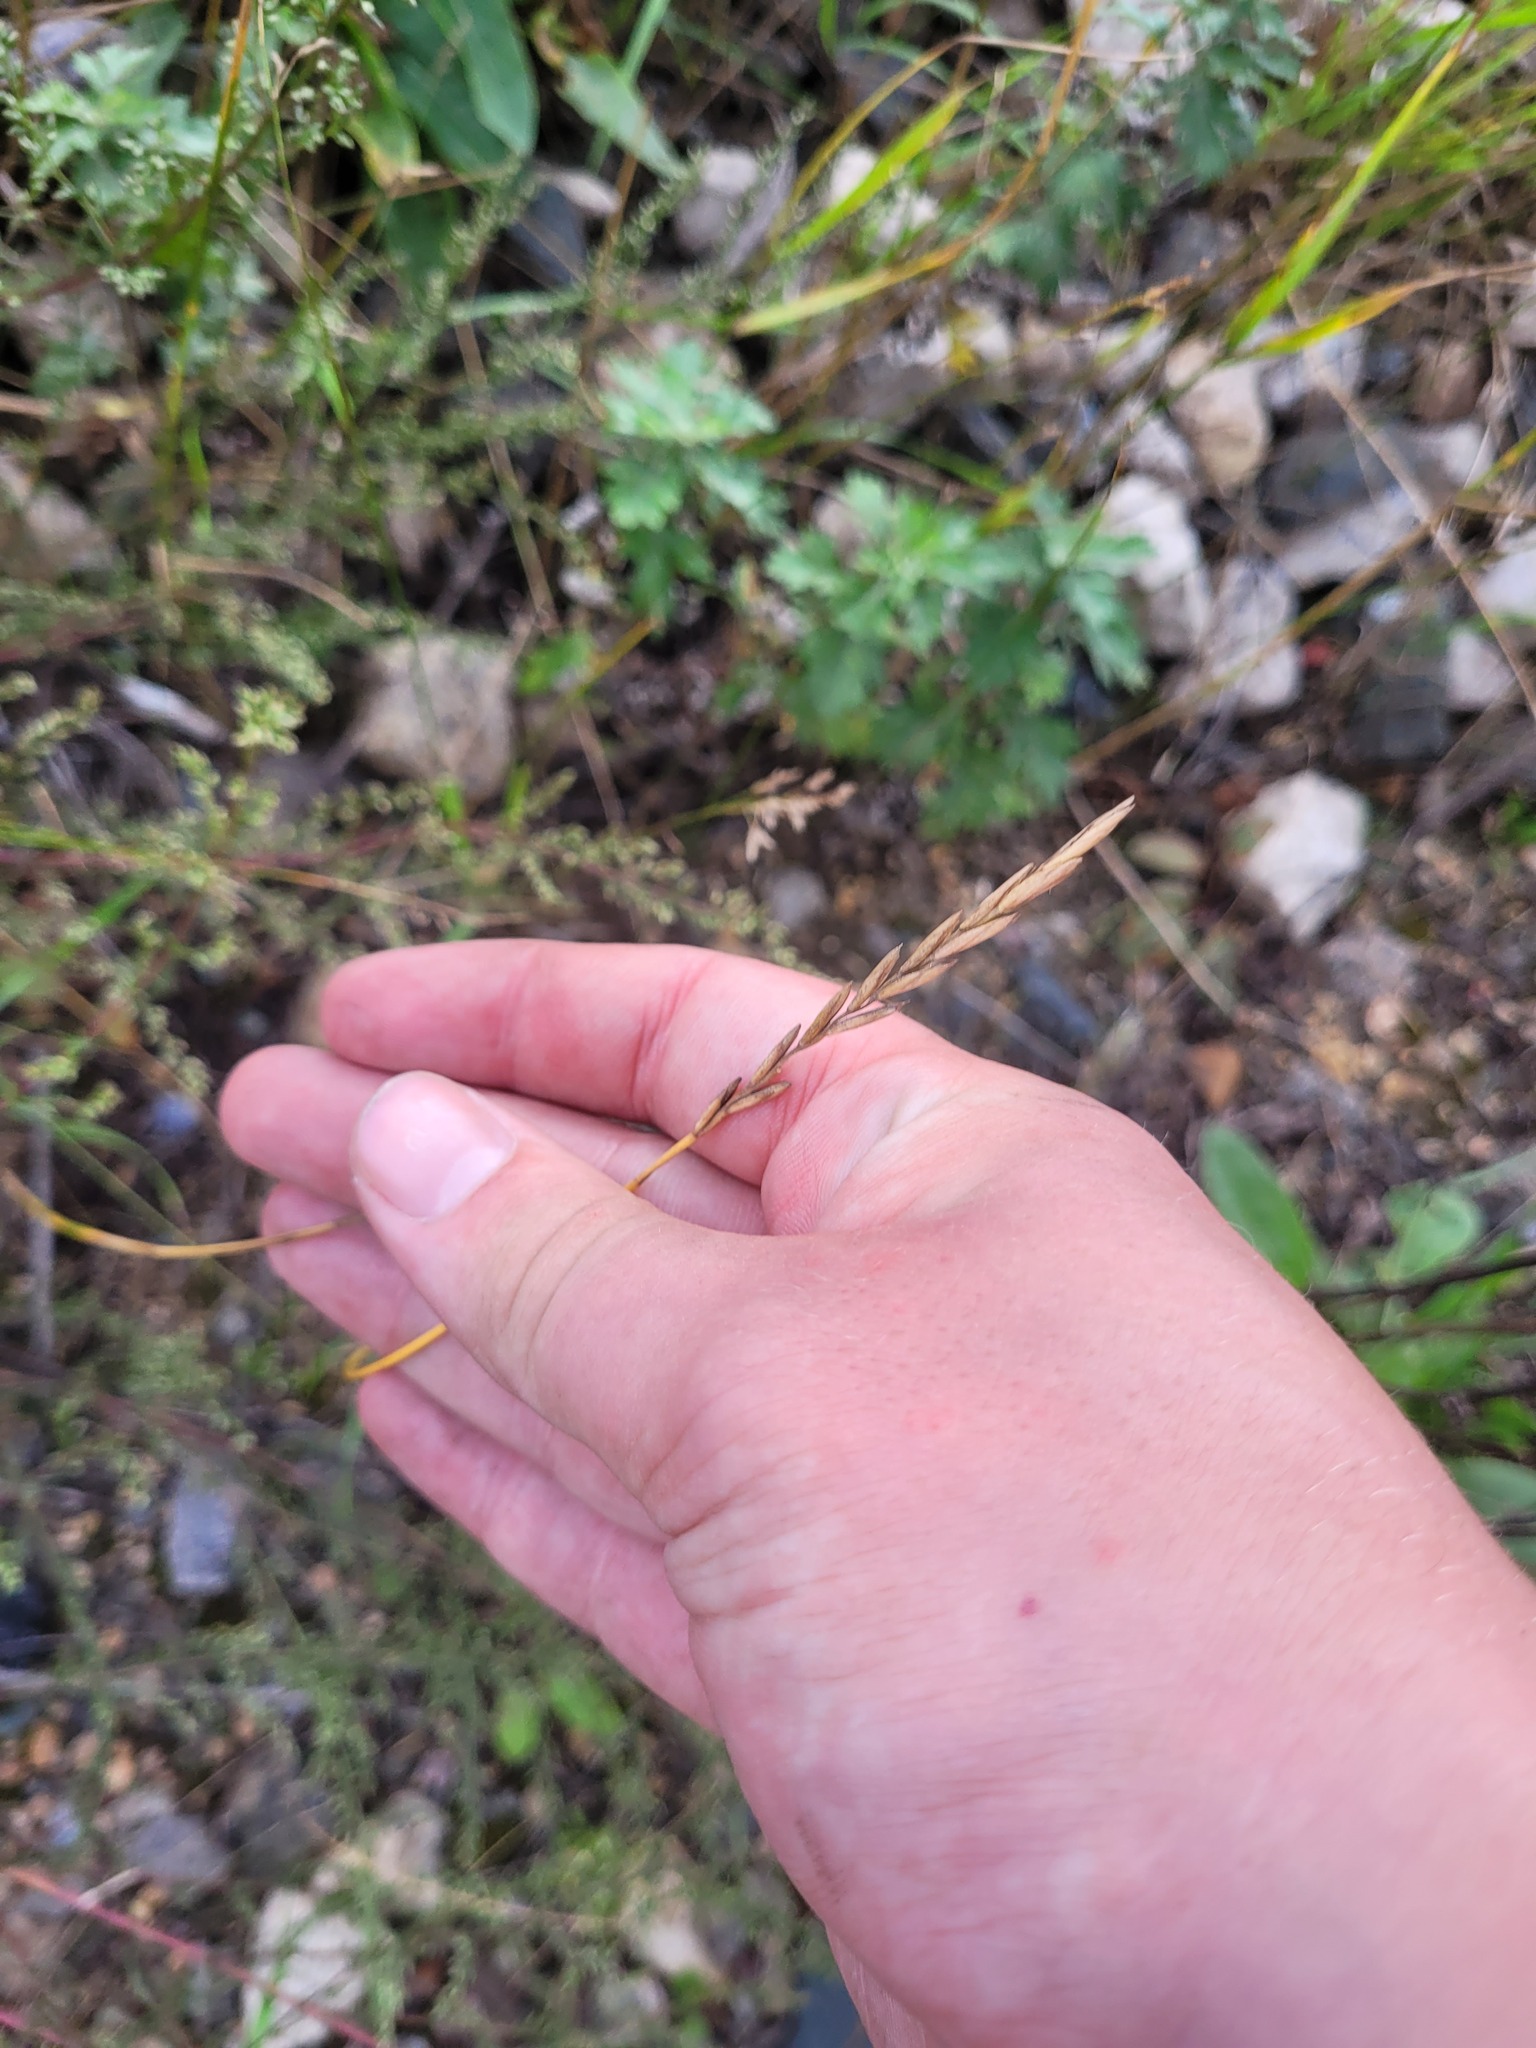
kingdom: Plantae
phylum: Tracheophyta
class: Liliopsida
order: Poales
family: Poaceae
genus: Elymus
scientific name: Elymus repens
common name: Quackgrass
